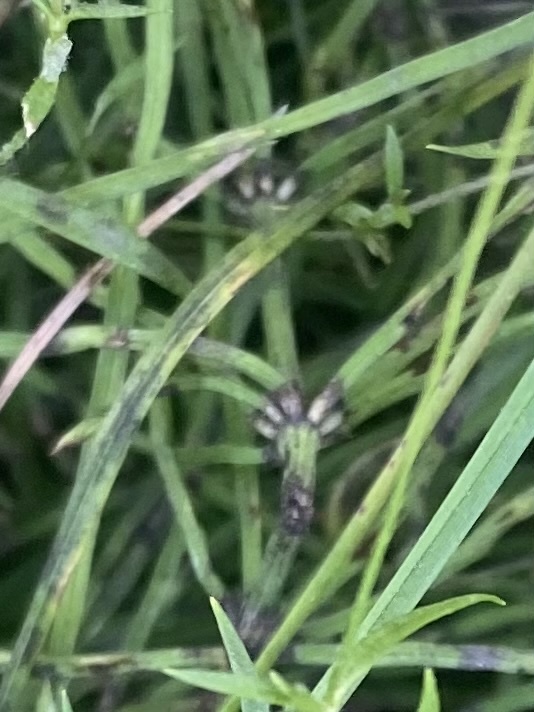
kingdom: Plantae
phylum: Tracheophyta
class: Polypodiopsida
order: Equisetales
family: Equisetaceae
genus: Equisetum
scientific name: Equisetum arvense
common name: Field horsetail
